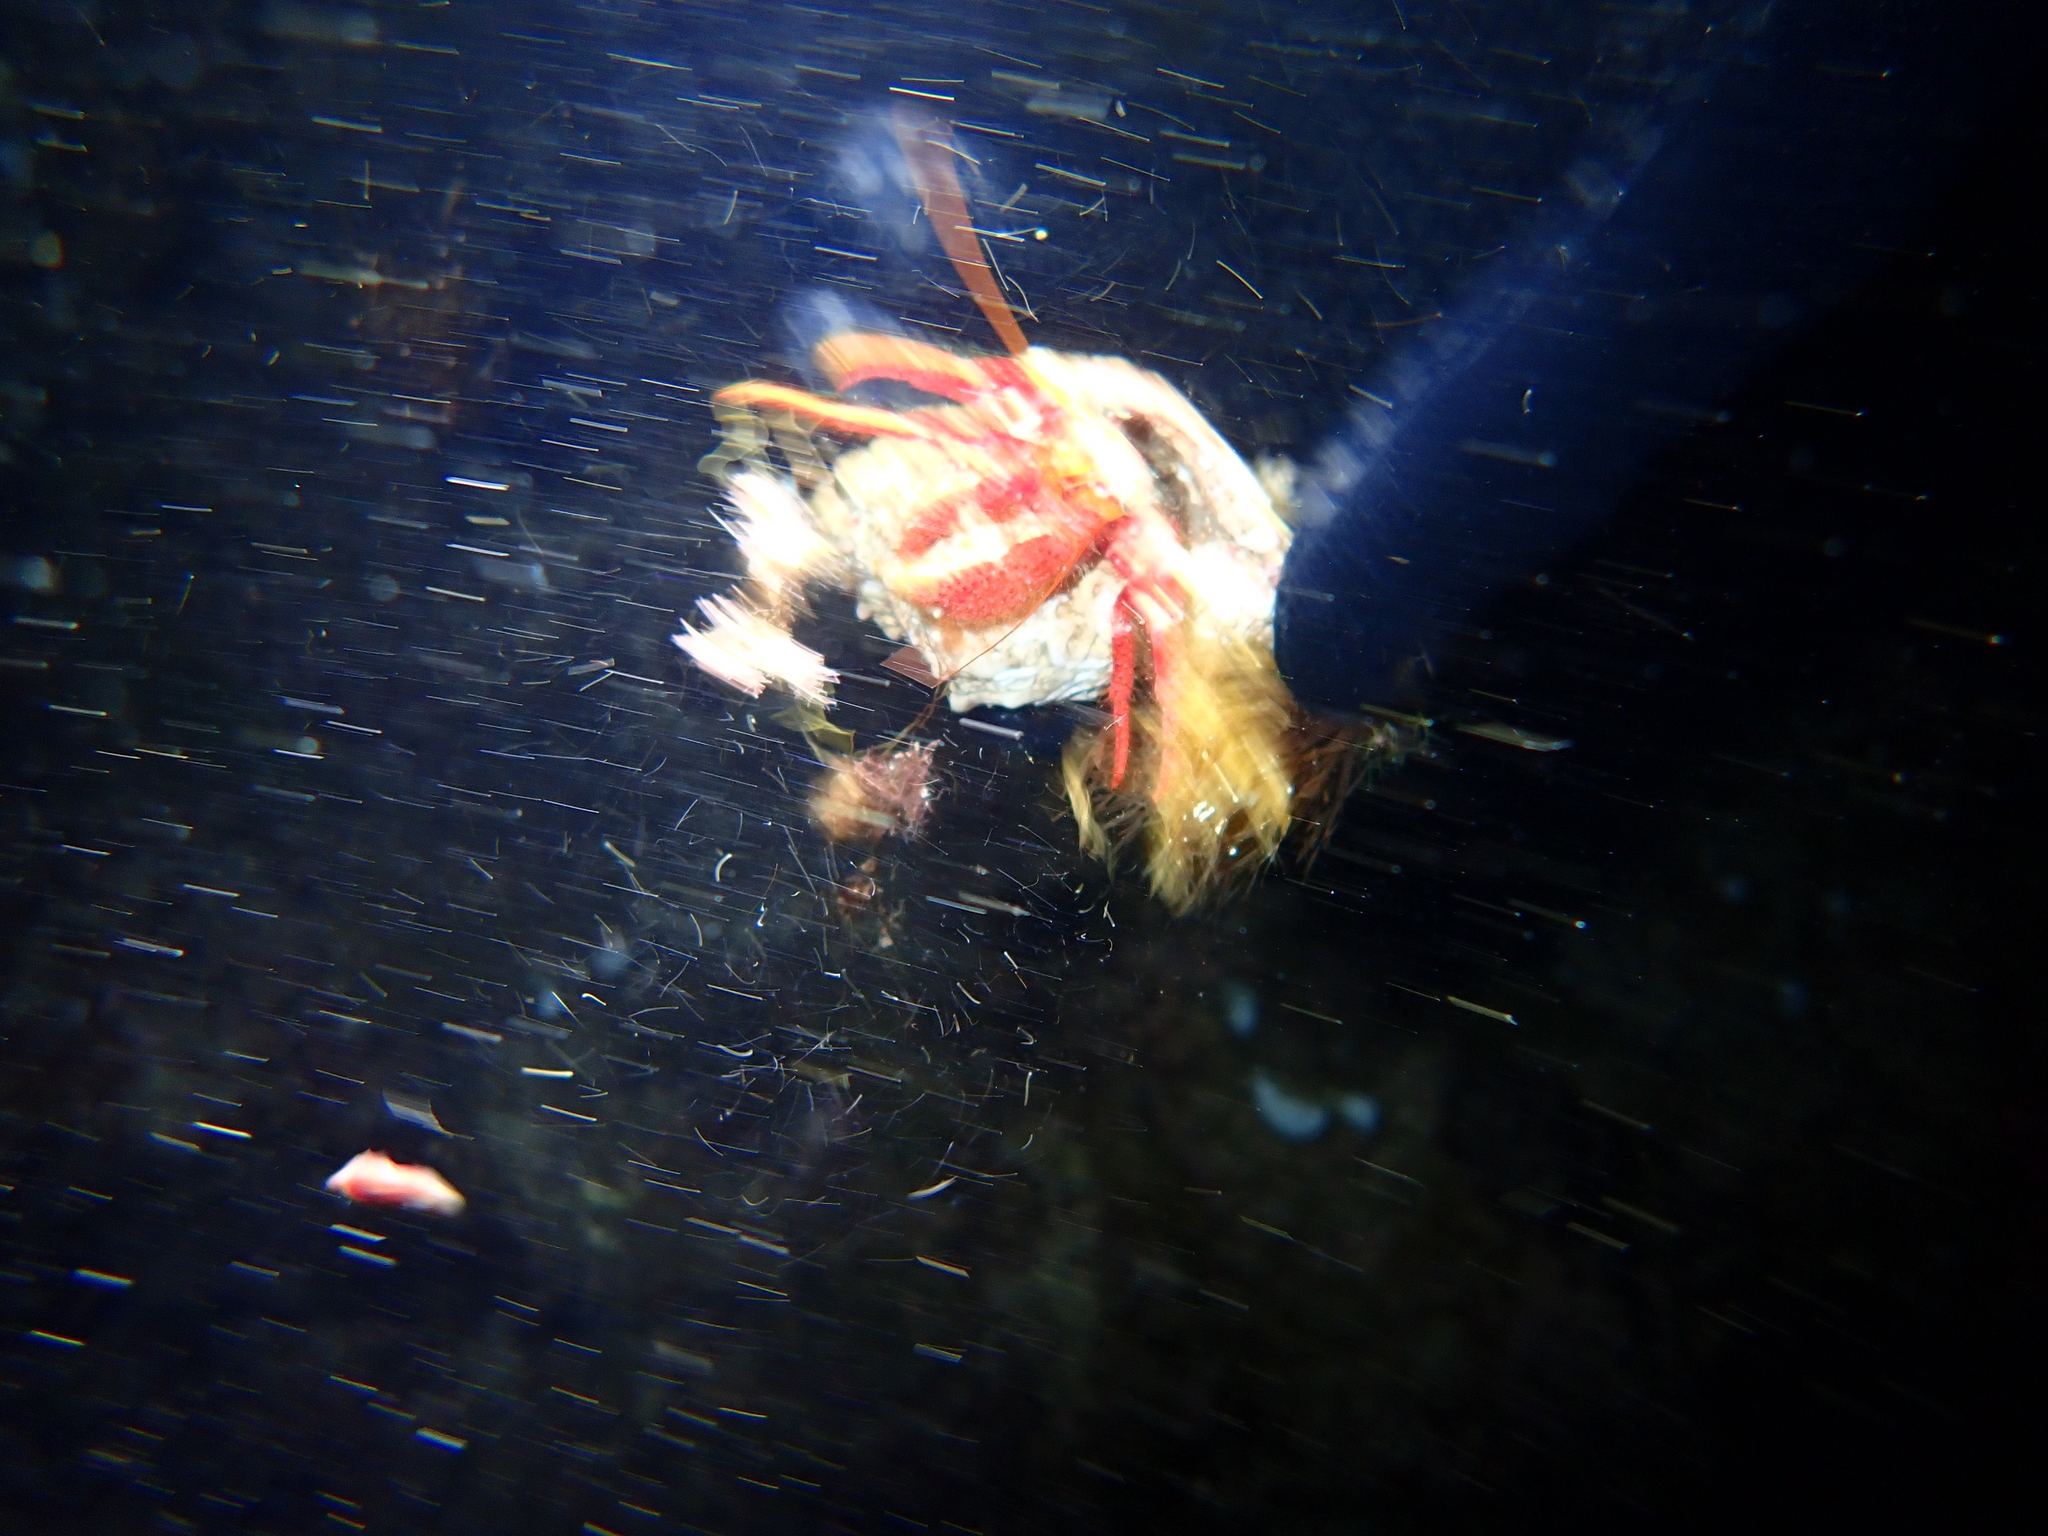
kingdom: Animalia
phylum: Arthropoda
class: Malacostraca
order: Decapoda
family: Diogenidae
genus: Dardanus
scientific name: Dardanus calidus
